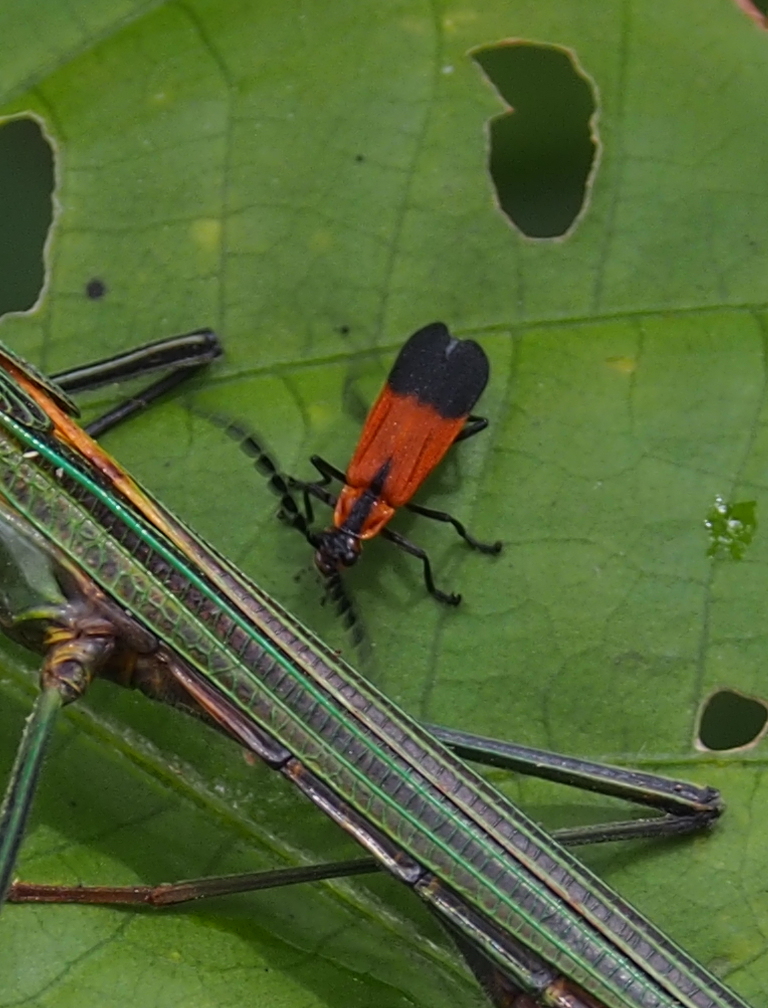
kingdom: Animalia
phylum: Arthropoda
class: Insecta
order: Coleoptera
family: Cantharidae
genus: Discodon
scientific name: Discodon
